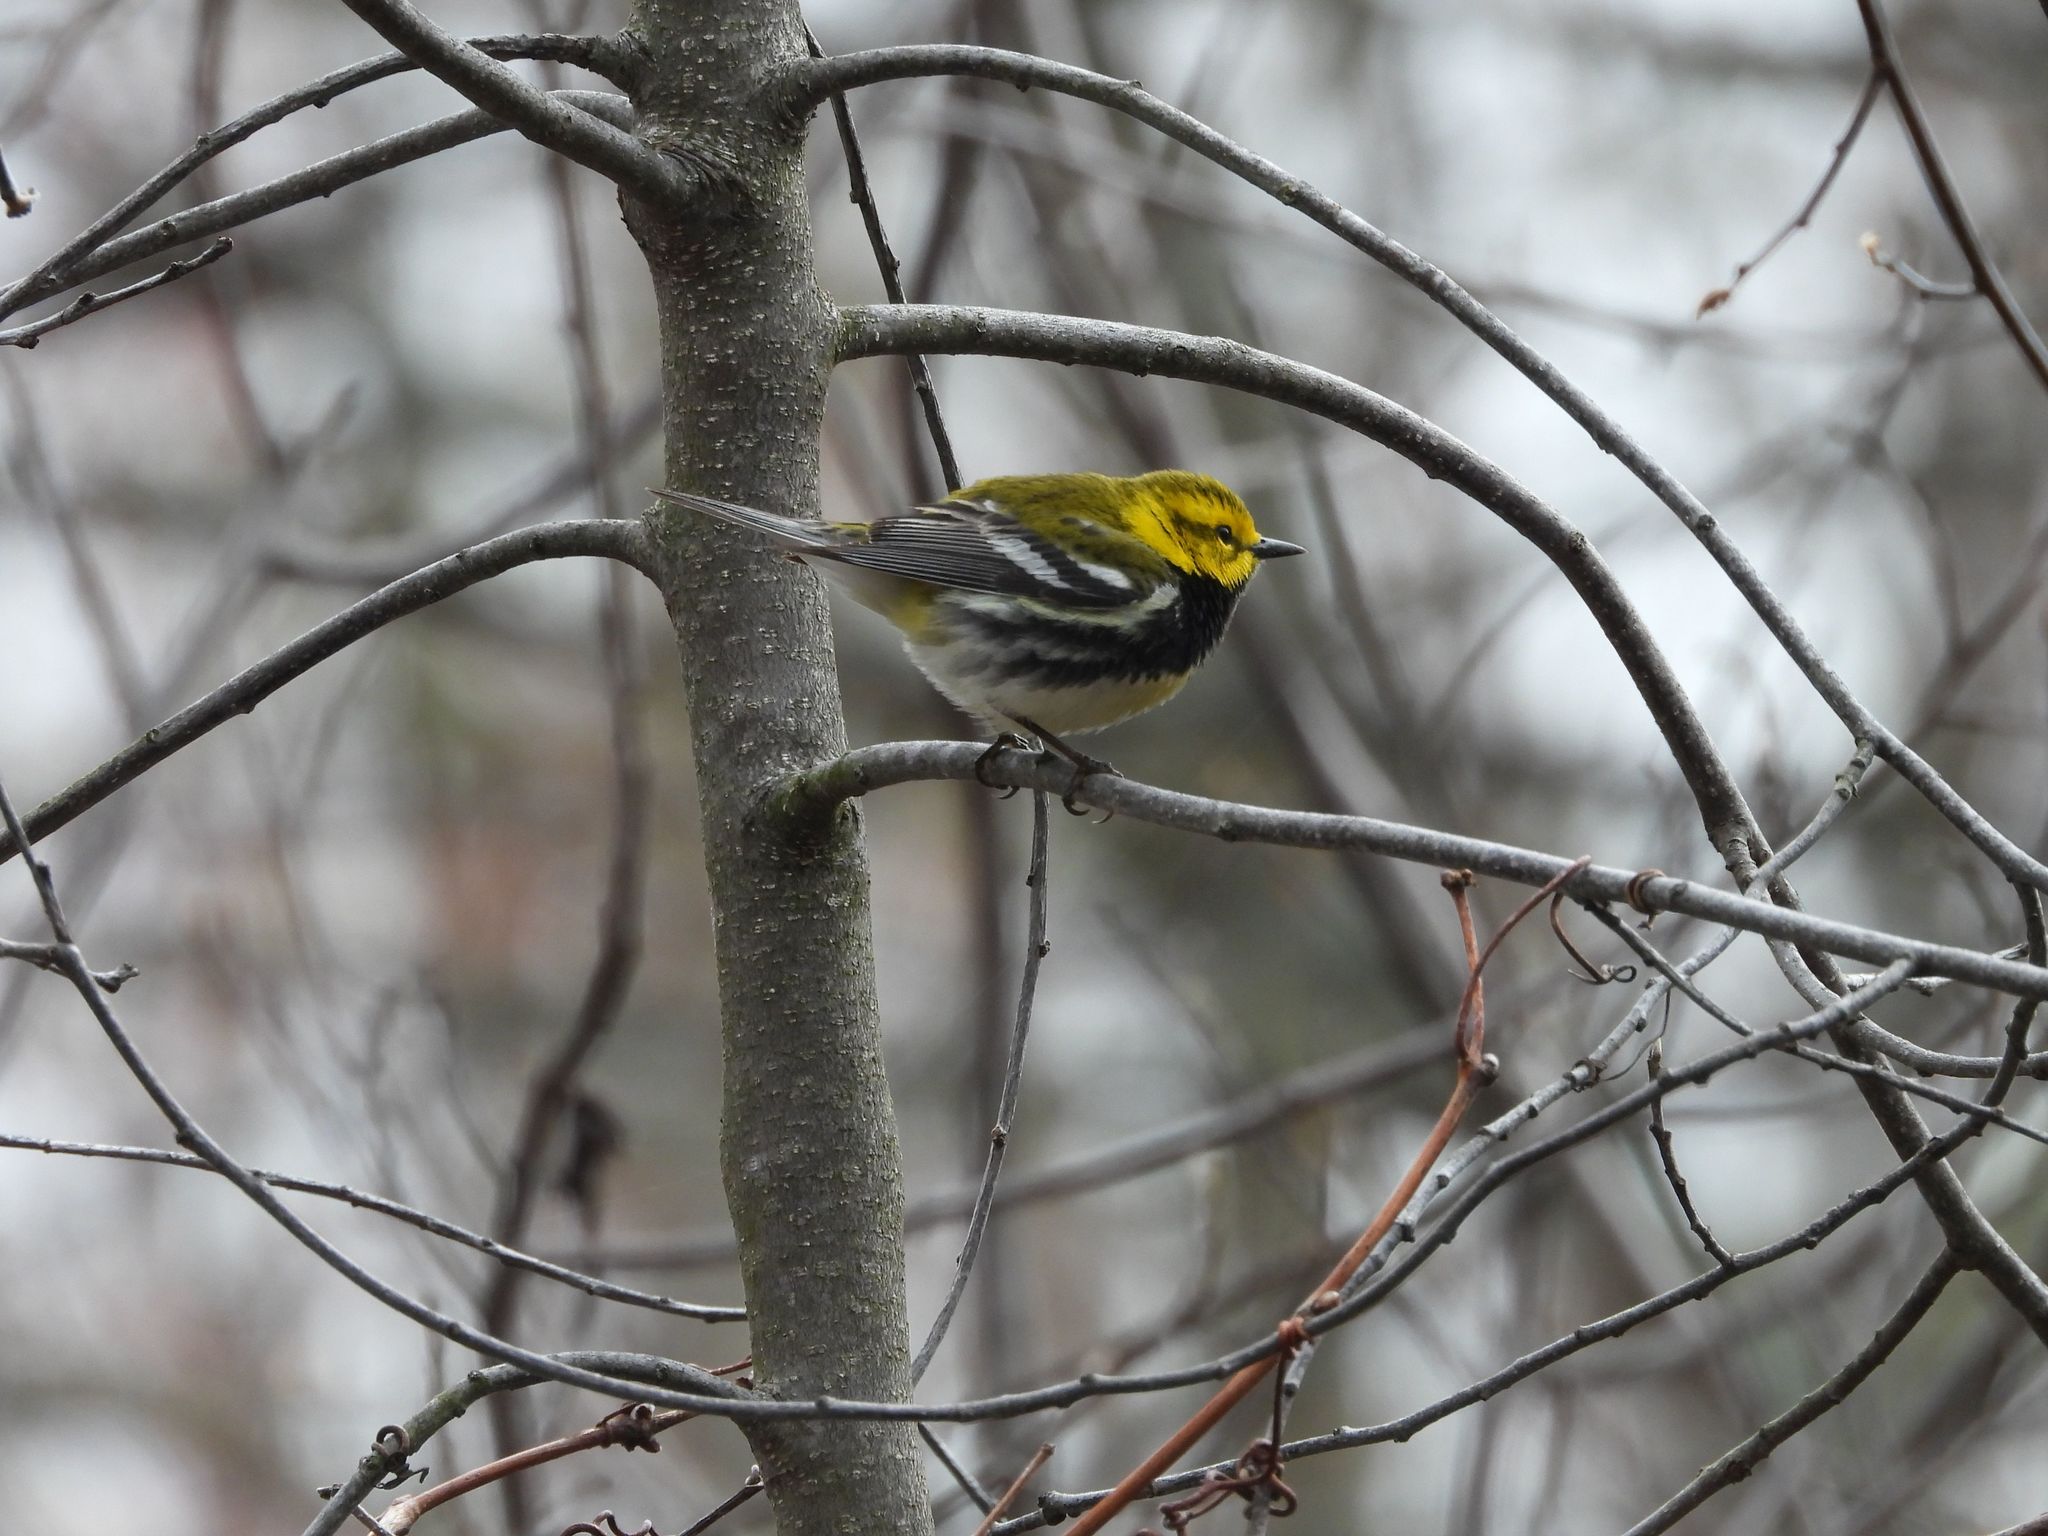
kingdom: Animalia
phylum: Chordata
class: Aves
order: Passeriformes
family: Parulidae
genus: Setophaga
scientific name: Setophaga virens
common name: Black-throated green warbler
